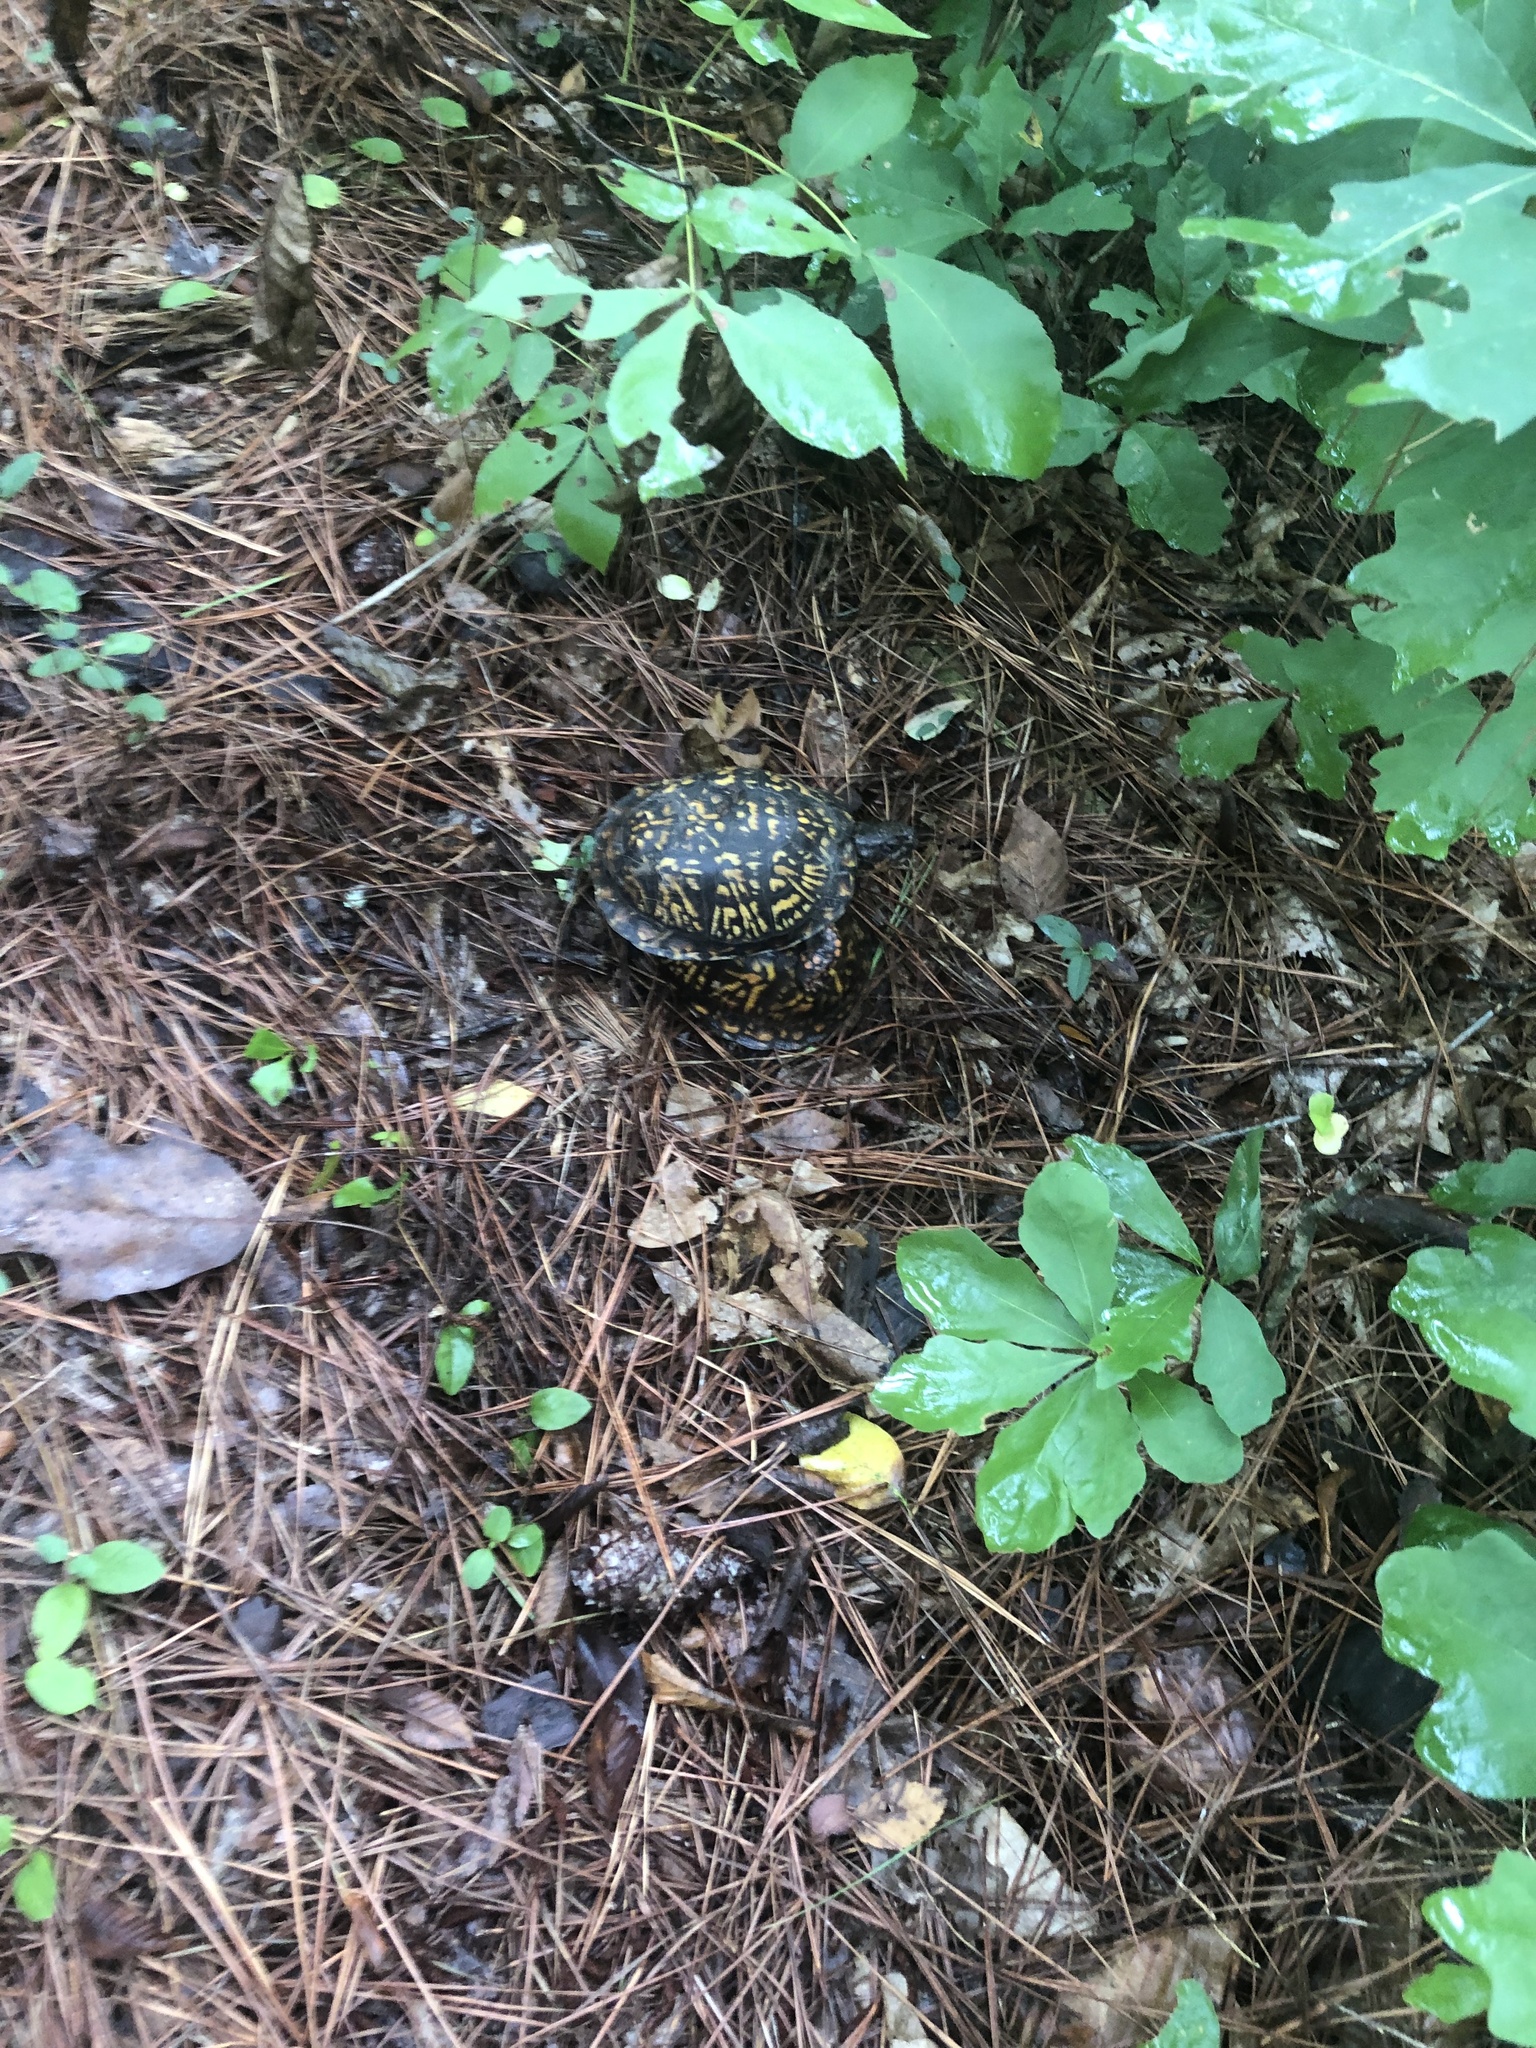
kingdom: Animalia
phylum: Chordata
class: Testudines
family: Emydidae
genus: Terrapene
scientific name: Terrapene carolina
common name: Common box turtle
